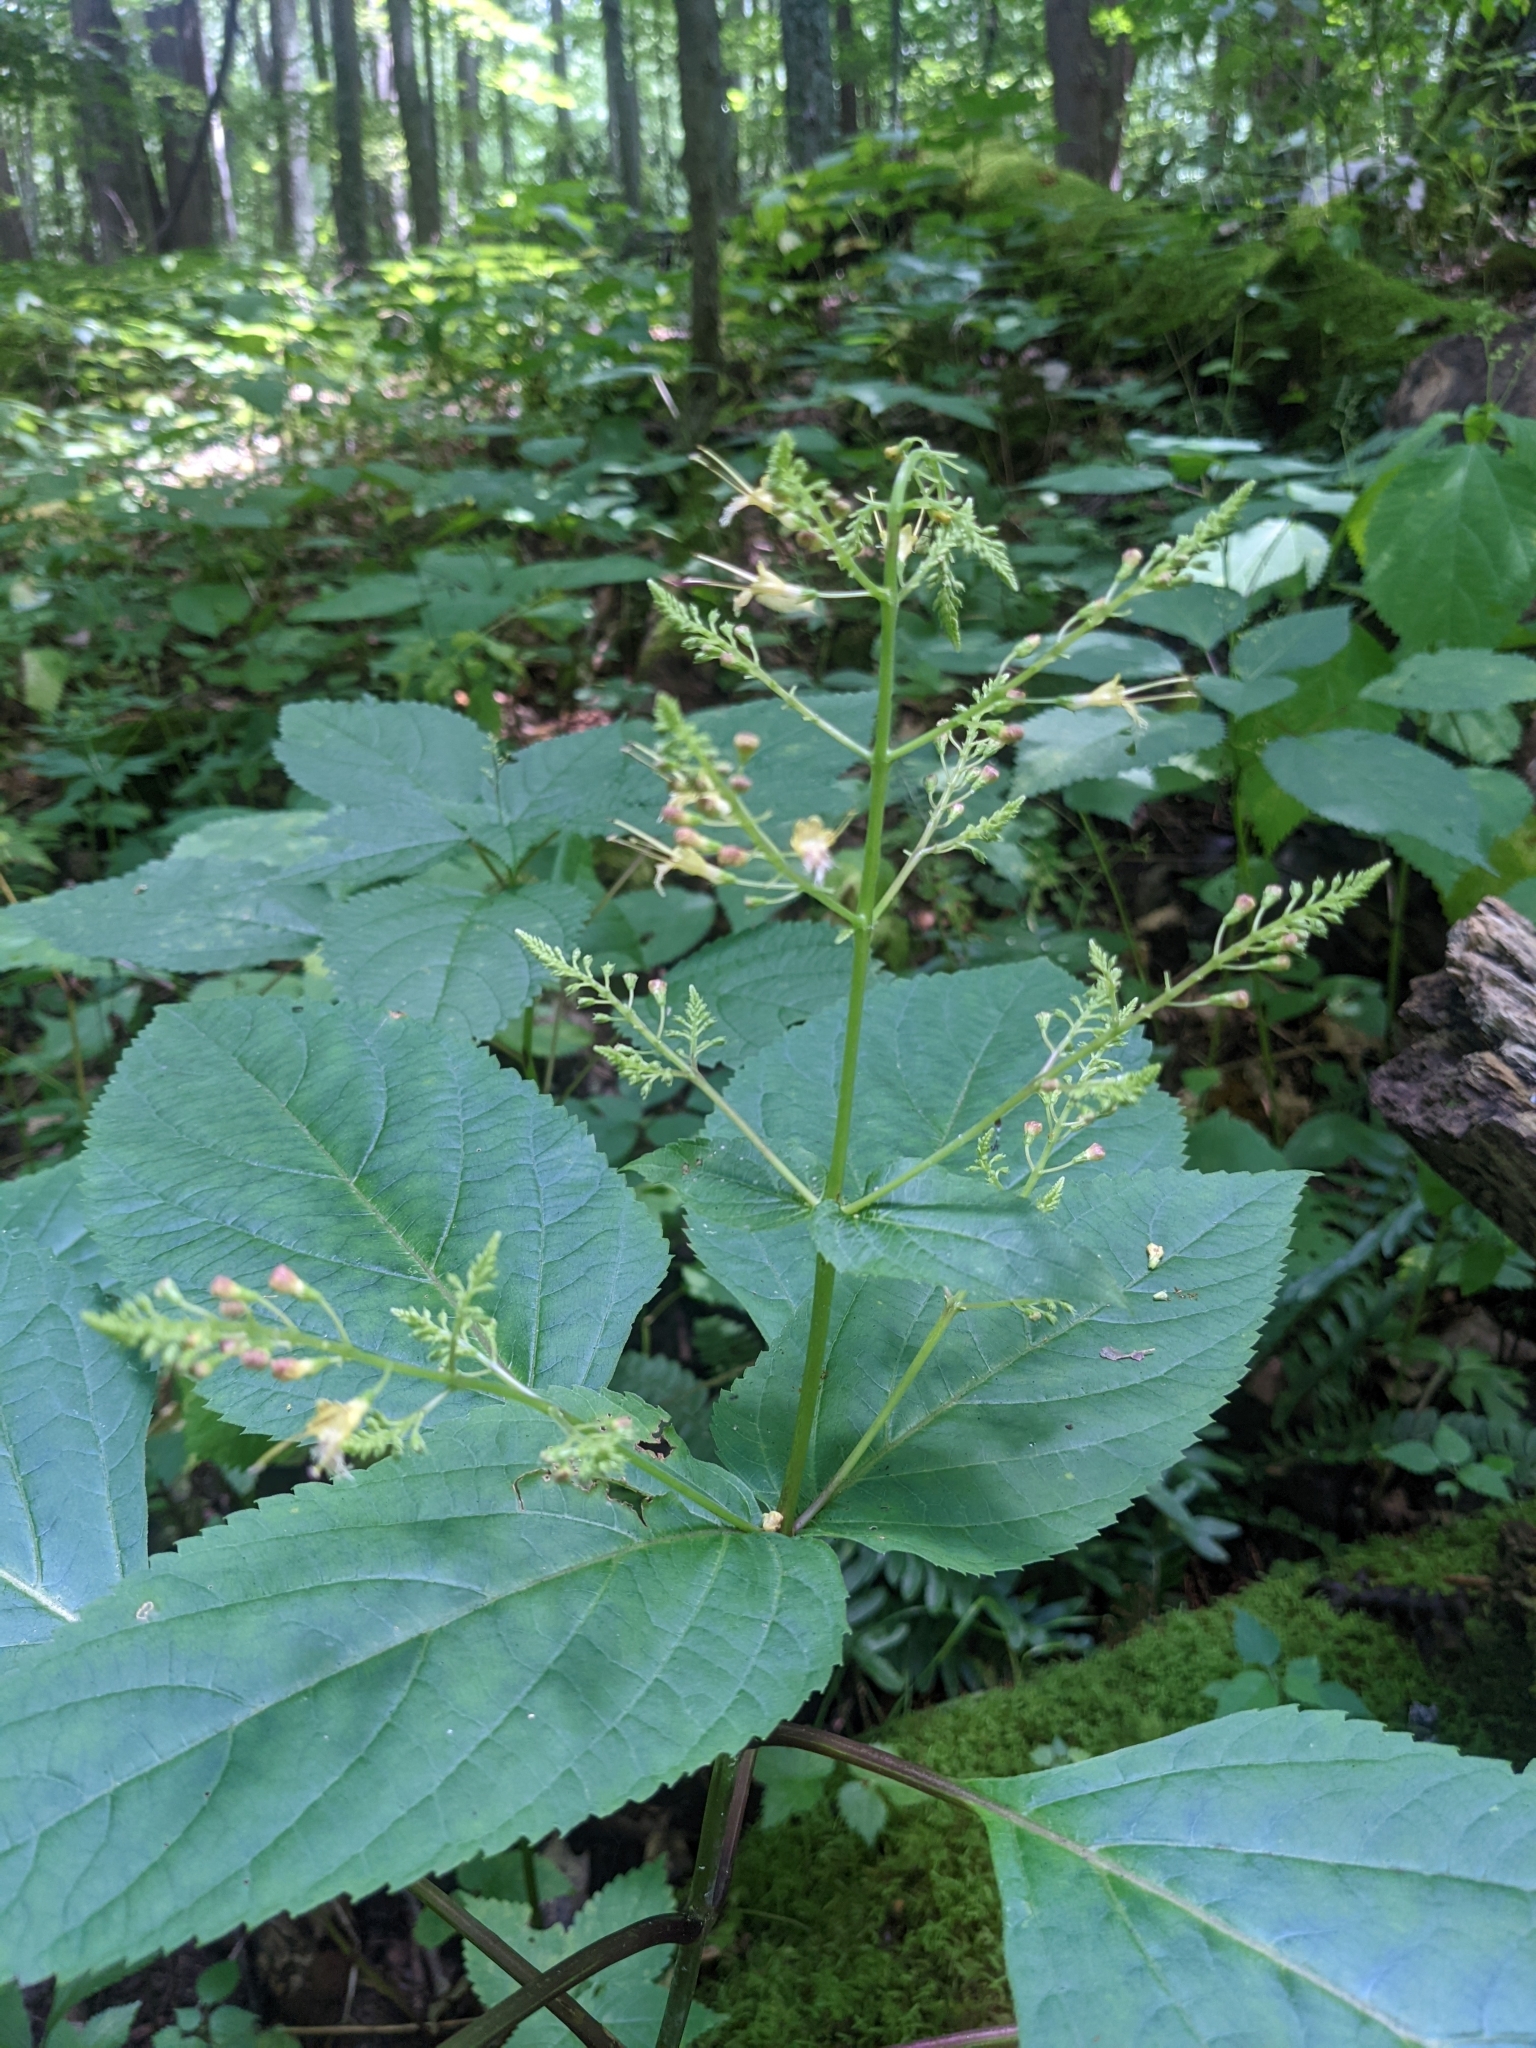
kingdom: Plantae
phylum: Tracheophyta
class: Magnoliopsida
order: Lamiales
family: Lamiaceae
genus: Collinsonia
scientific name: Collinsonia canadensis
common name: Northern horsebalm
